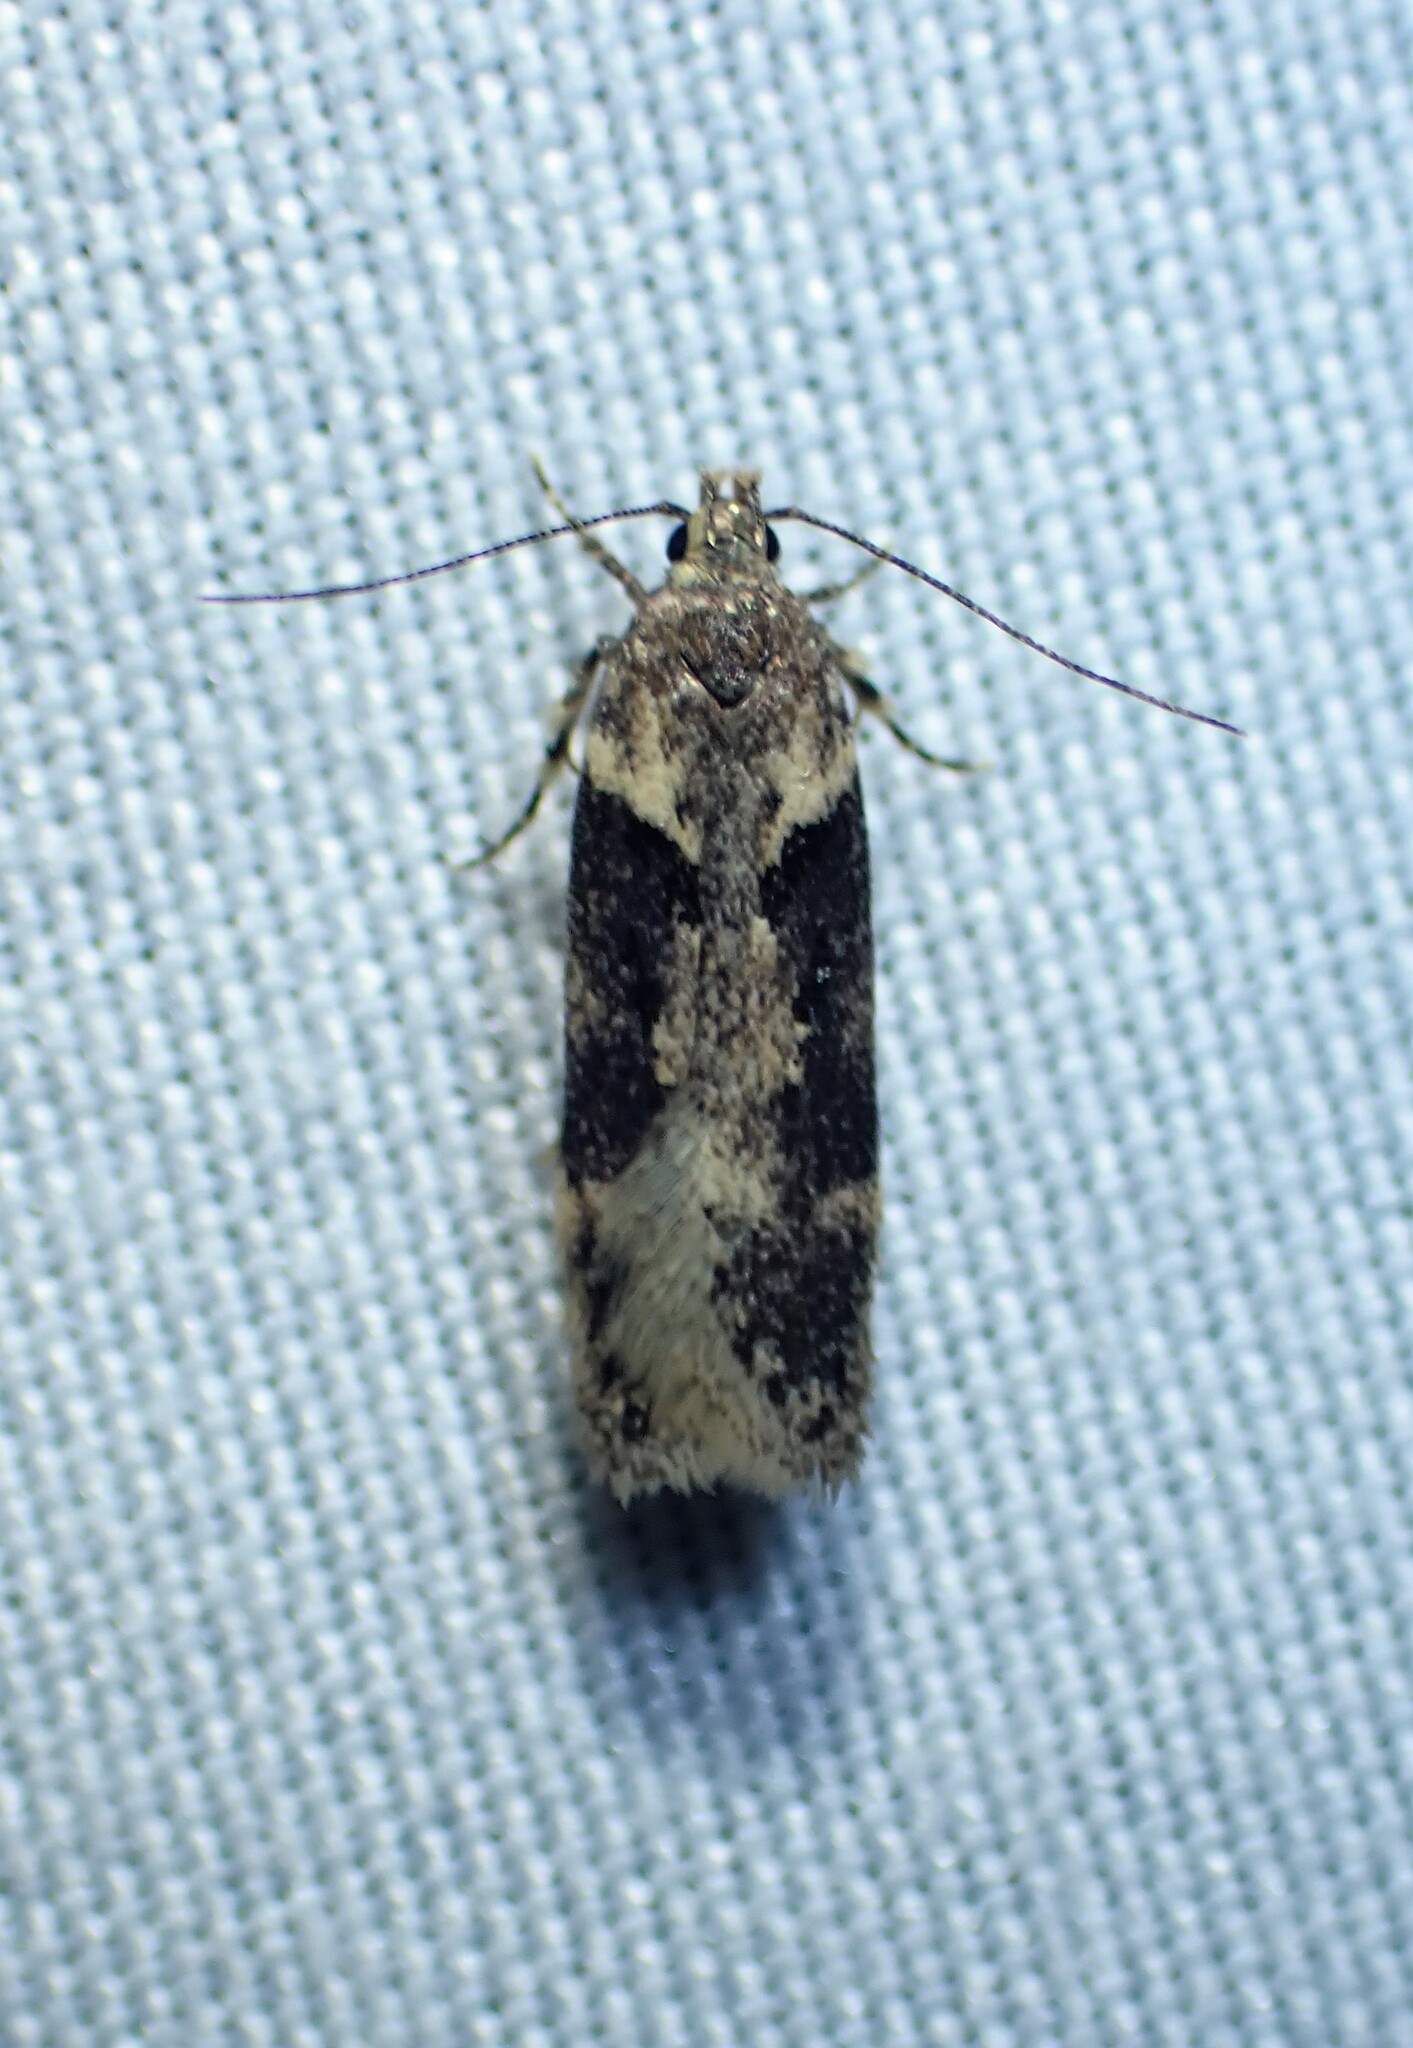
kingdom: Animalia
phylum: Arthropoda
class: Insecta
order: Lepidoptera
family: Gelechiidae
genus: Chionodes
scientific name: Chionodes mediofuscella
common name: Black-smudged chionodes moth
